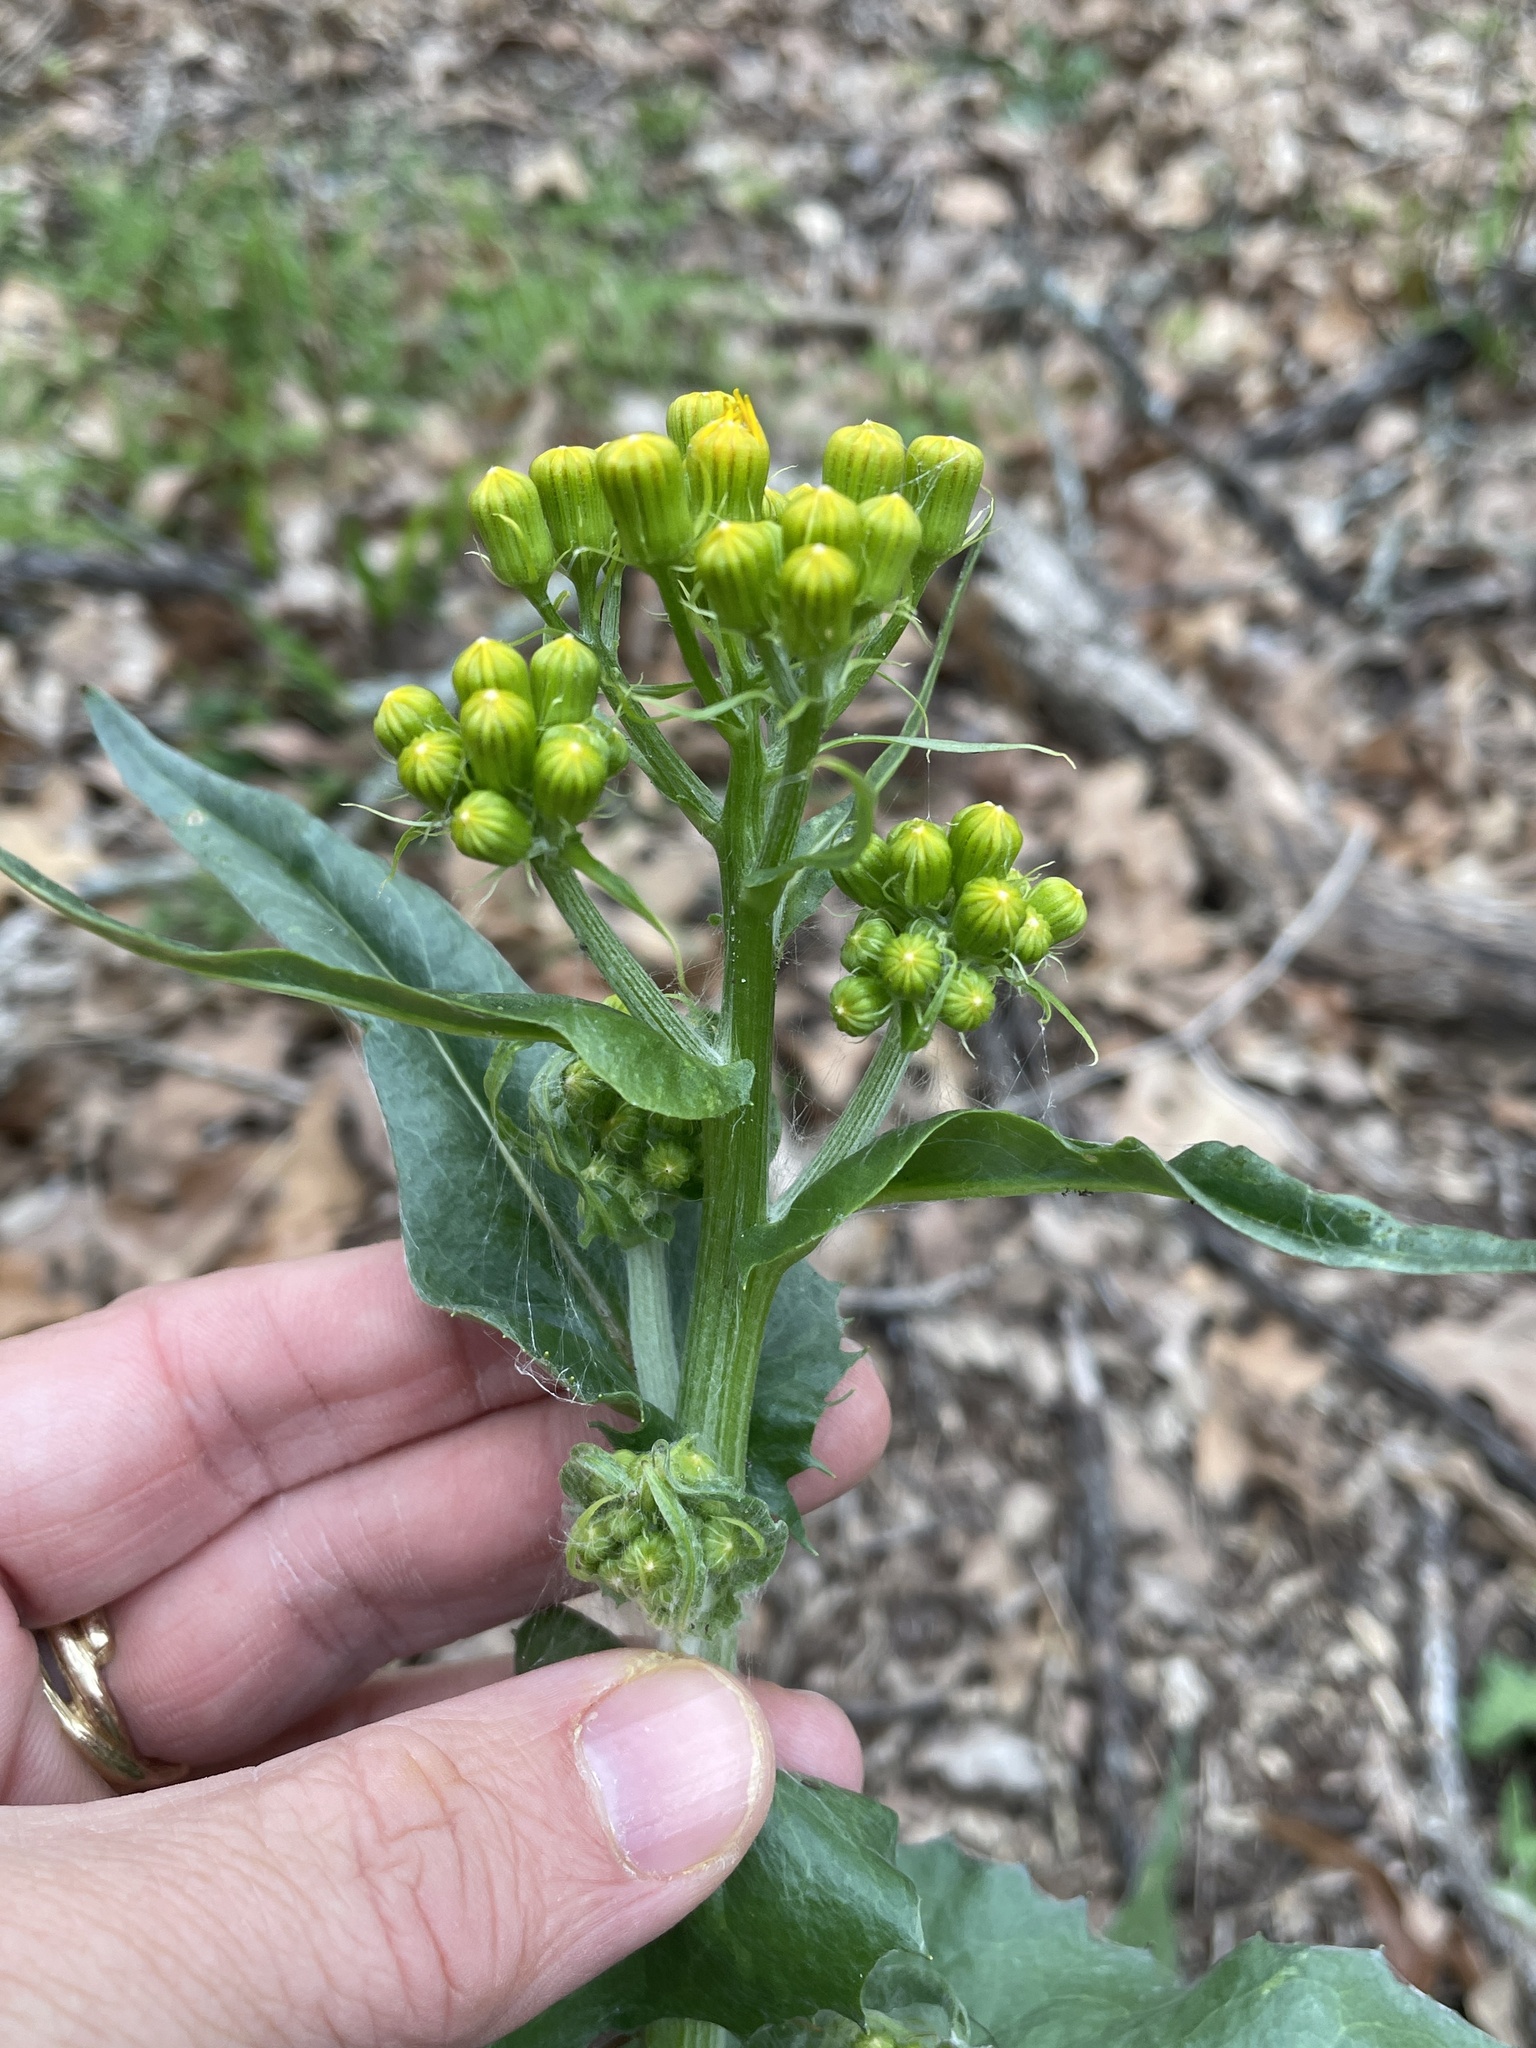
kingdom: Plantae
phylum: Tracheophyta
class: Magnoliopsida
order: Asterales
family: Asteraceae
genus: Senecio
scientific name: Senecio ampullaceus
